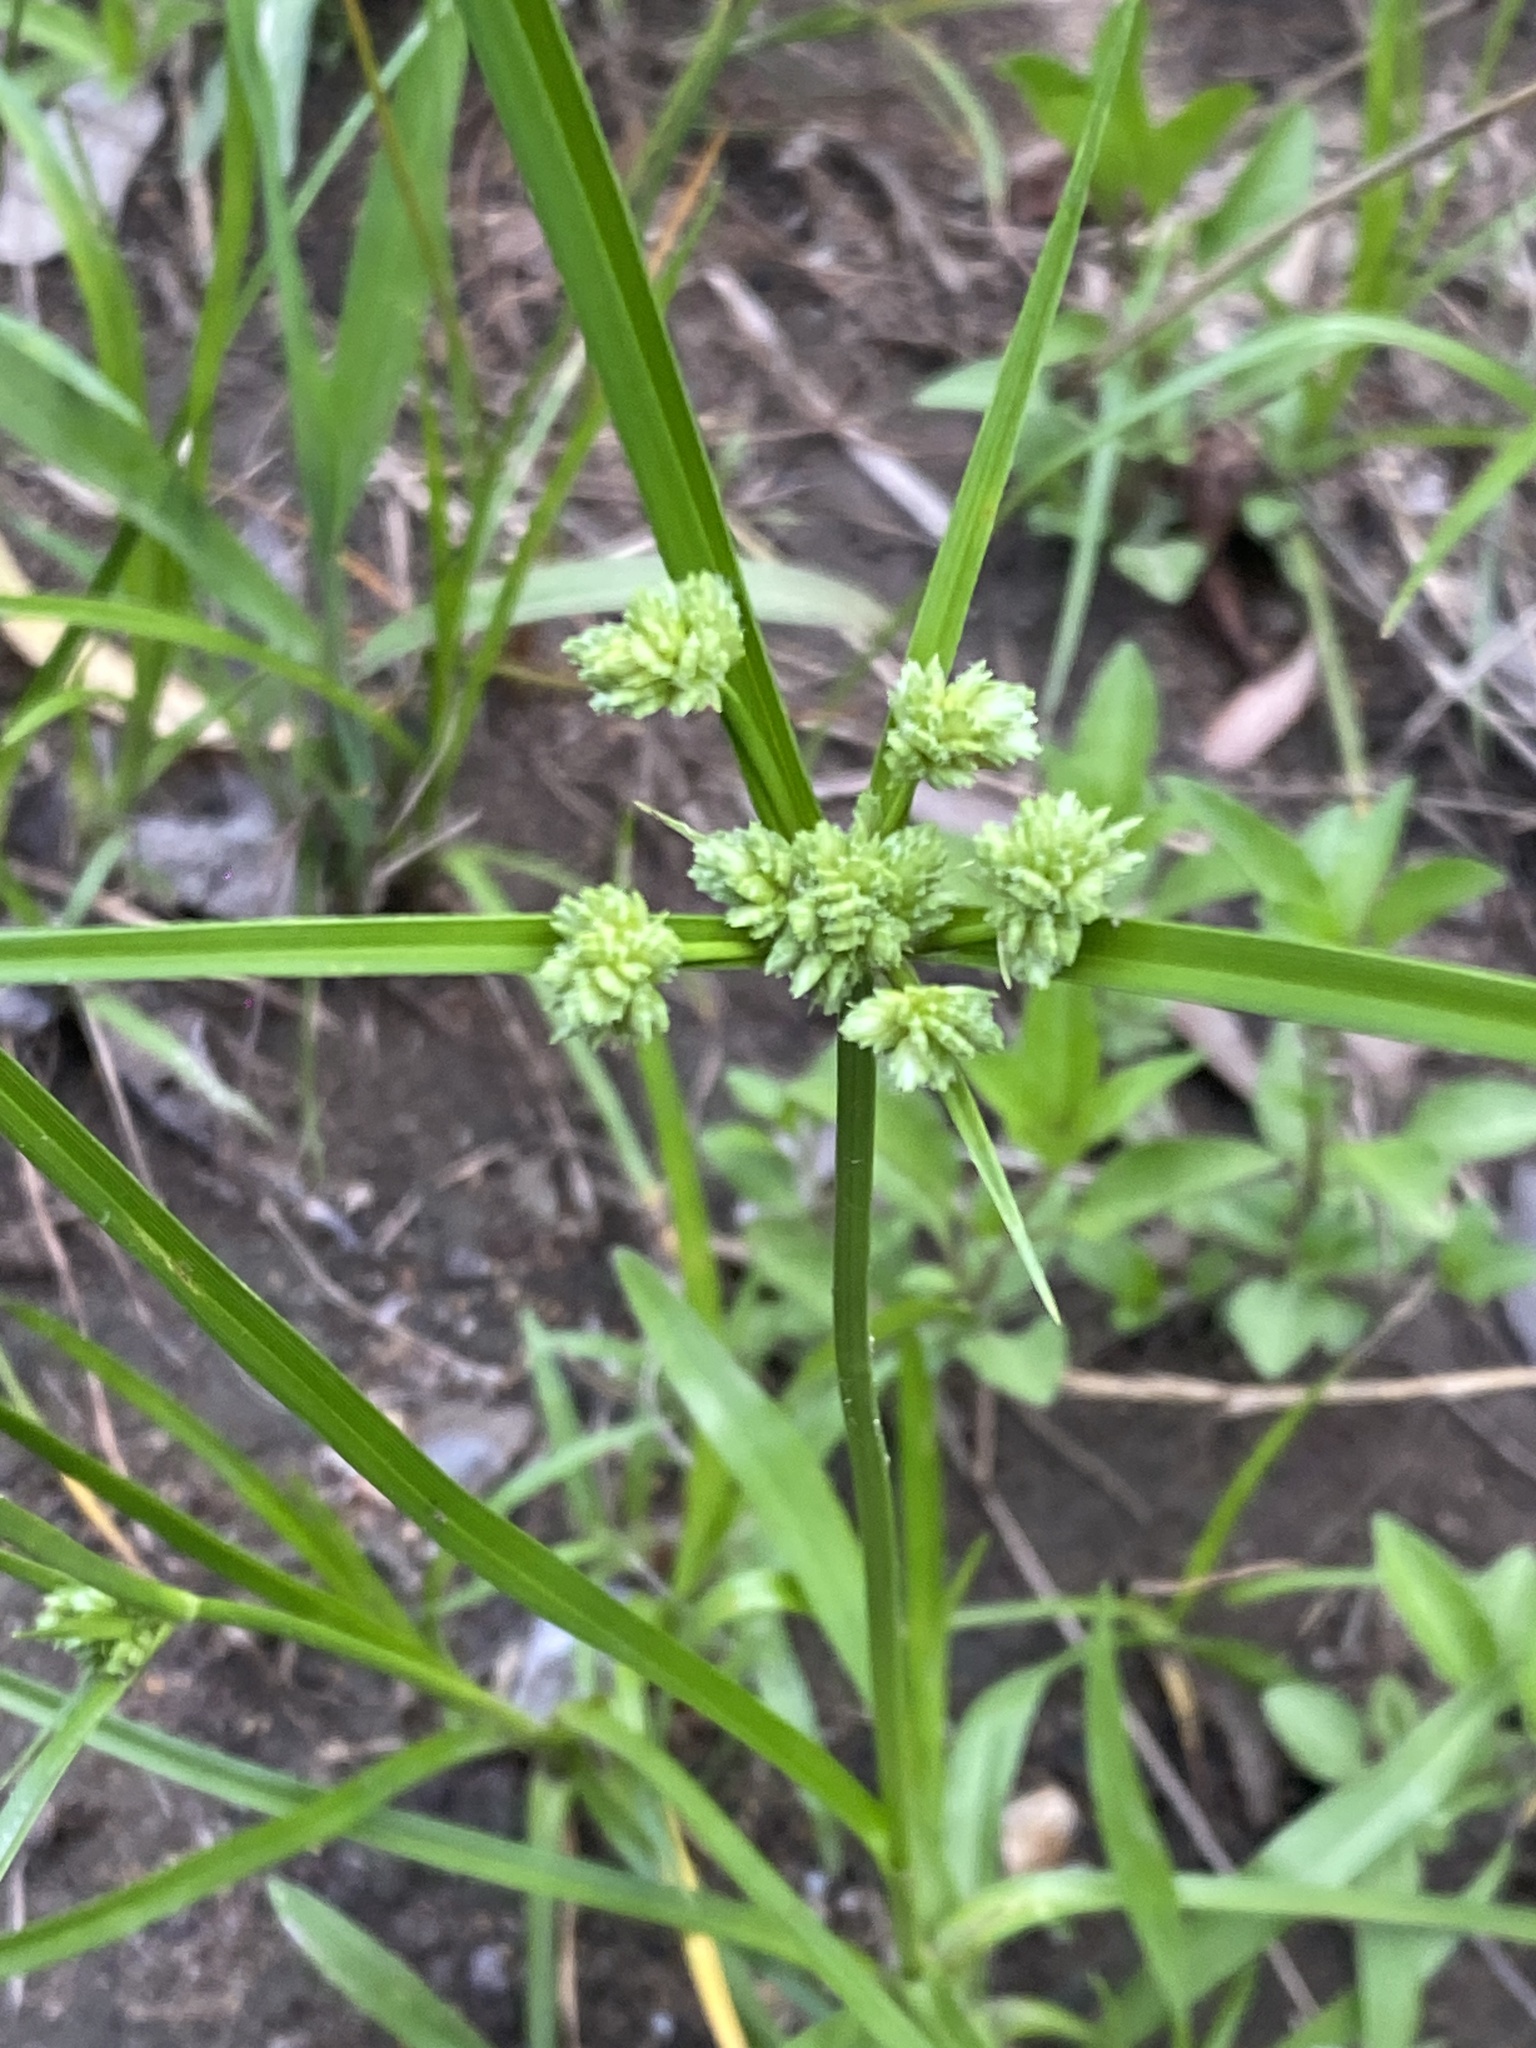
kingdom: Plantae
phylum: Tracheophyta
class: Liliopsida
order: Poales
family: Cyperaceae
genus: Cyperus
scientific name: Cyperus eragrostis
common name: Tall flatsedge
